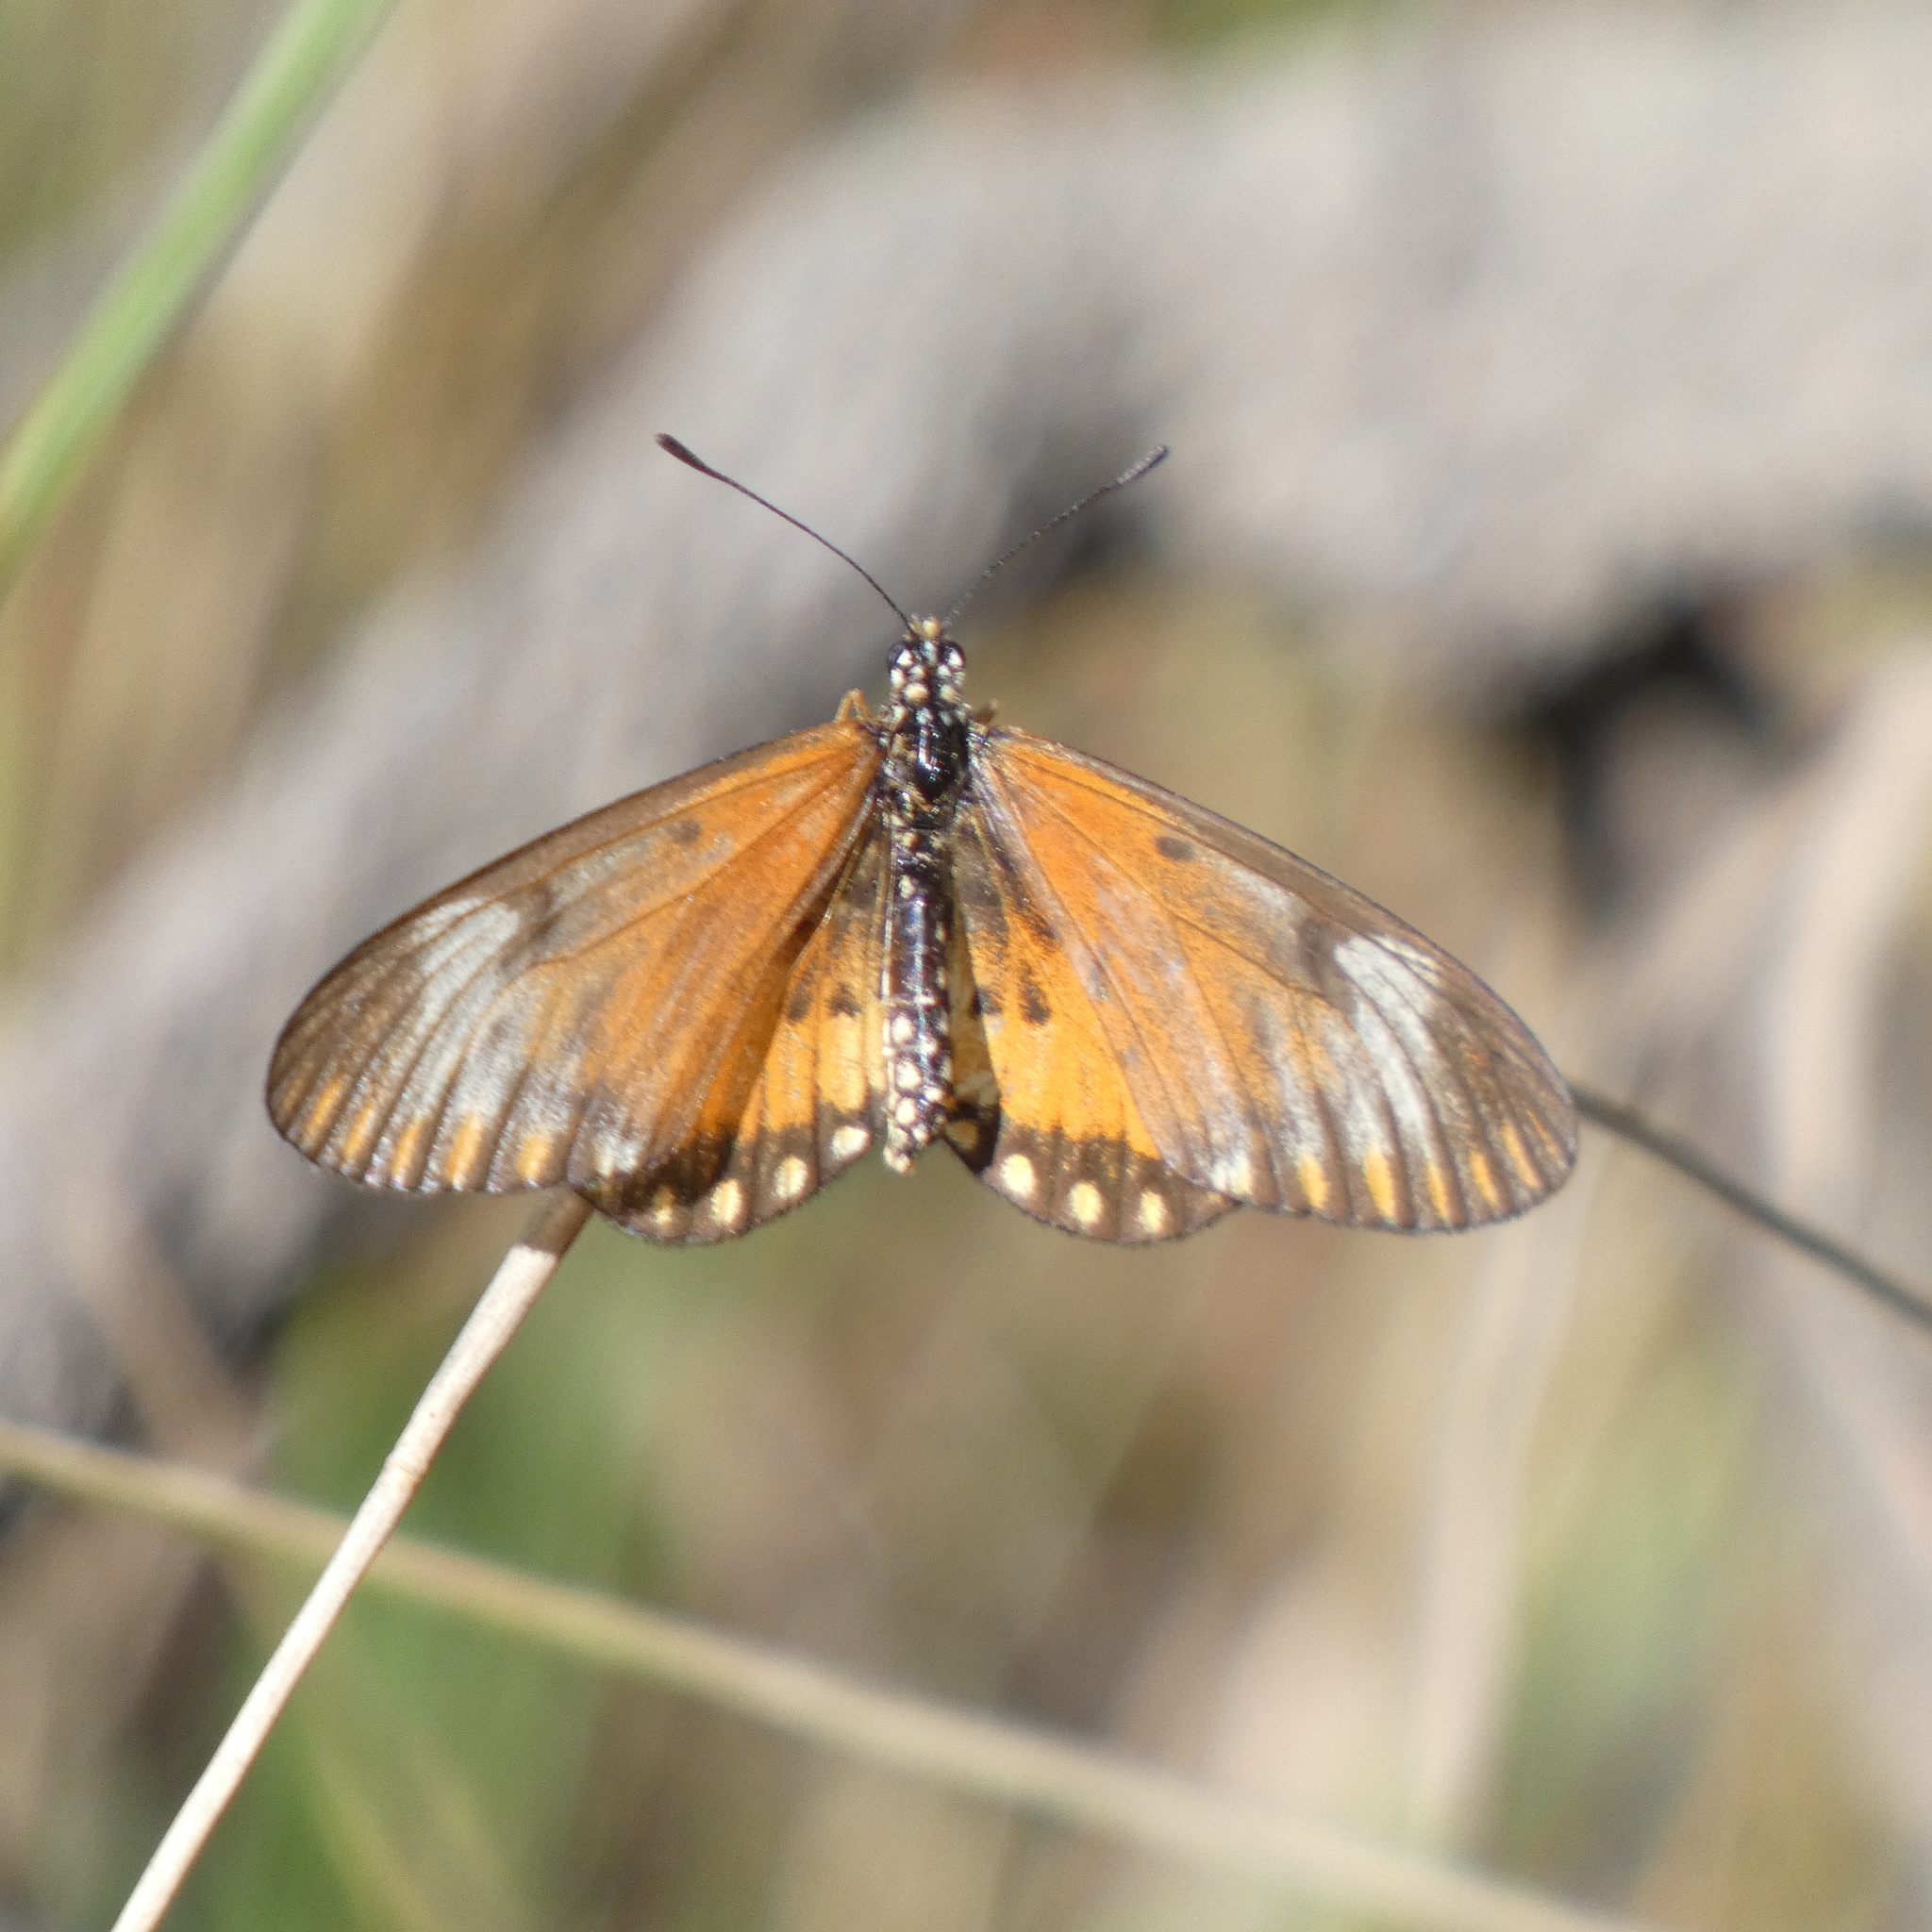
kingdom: Animalia
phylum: Arthropoda
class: Insecta
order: Lepidoptera
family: Nymphalidae
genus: Acraea
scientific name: Acraea Telchinia serena
